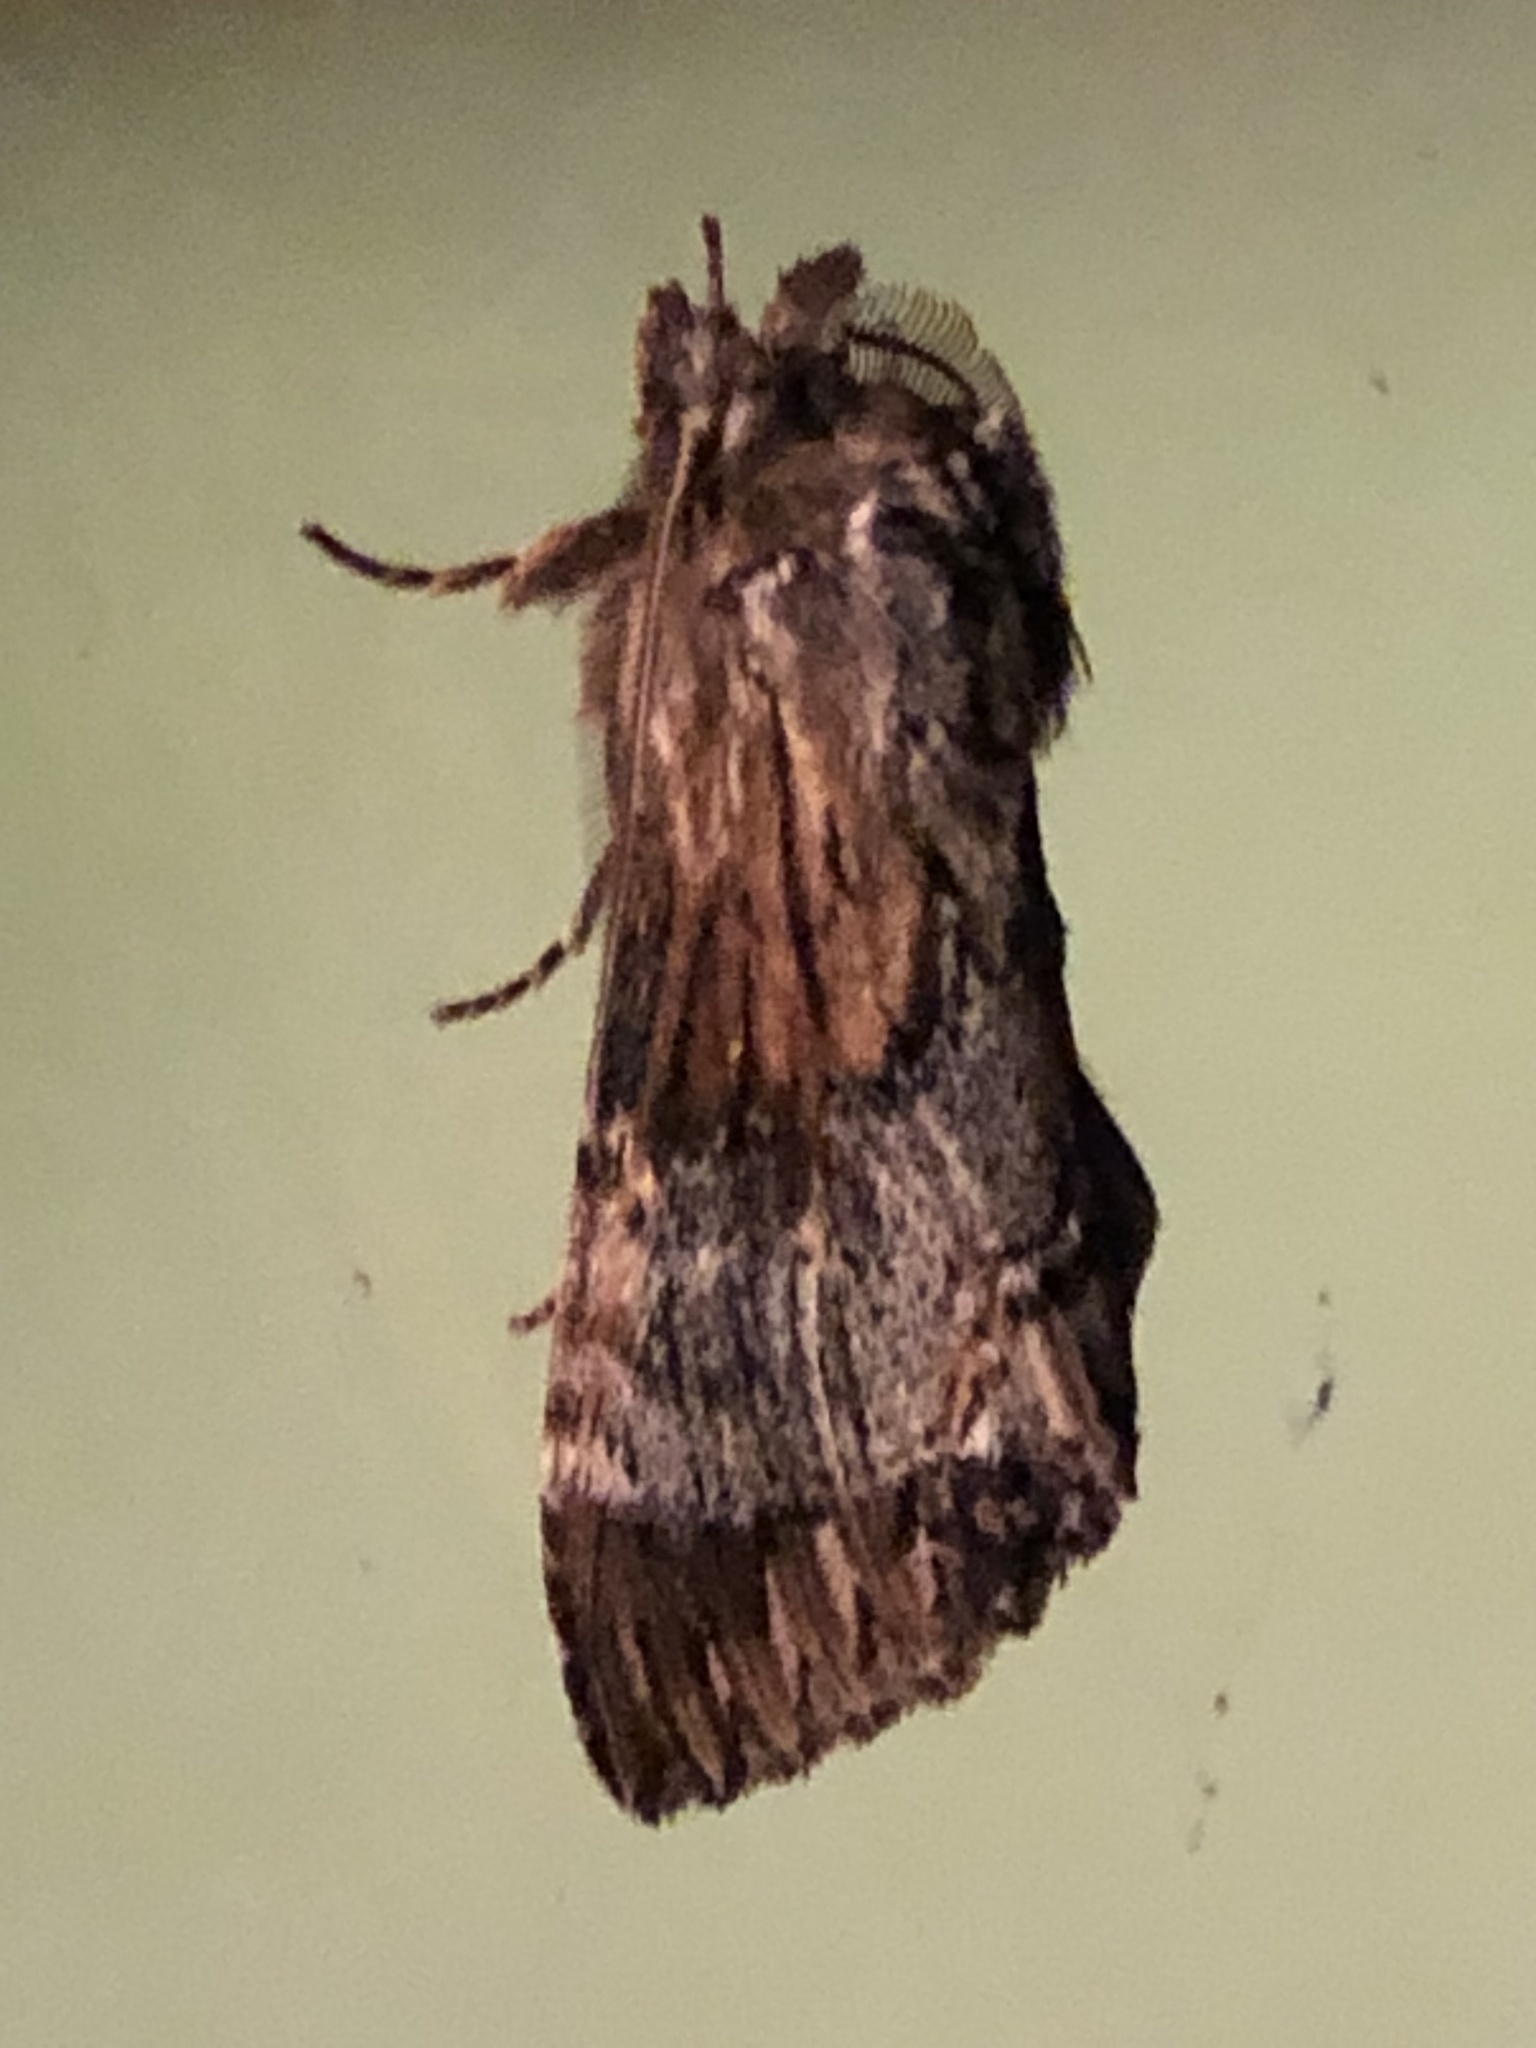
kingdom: Animalia
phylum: Arthropoda
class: Insecta
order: Lepidoptera
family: Notodontidae
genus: Dasylophia
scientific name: Dasylophia thyatiroides
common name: Gray-patched prominent
